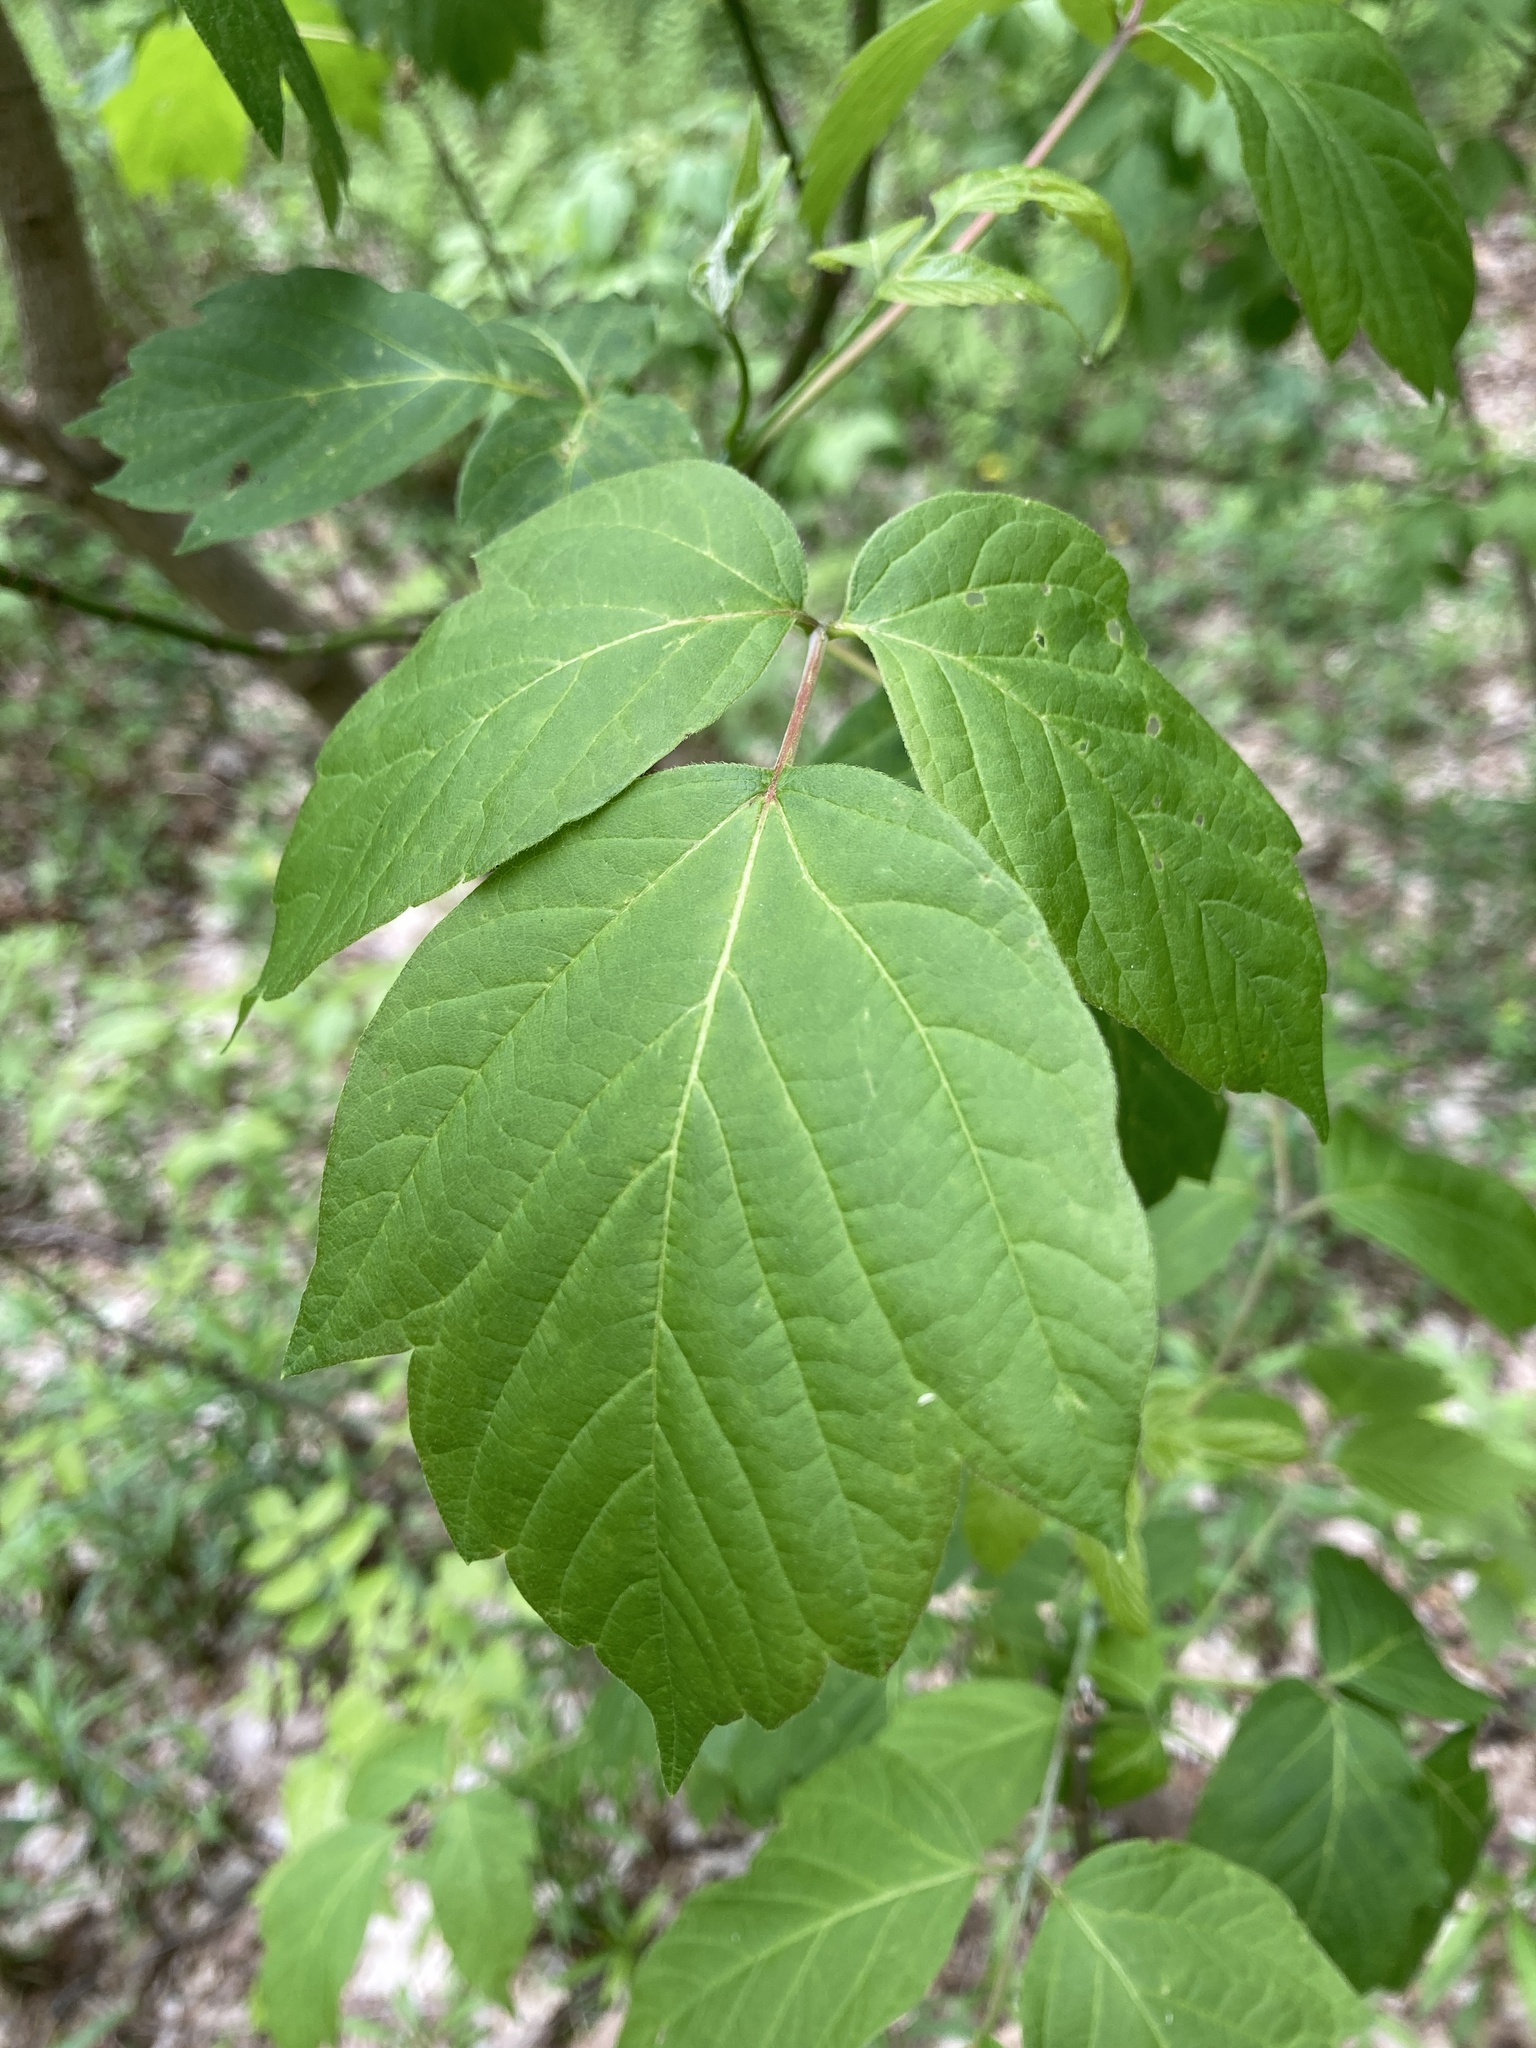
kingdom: Plantae
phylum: Tracheophyta
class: Magnoliopsida
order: Sapindales
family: Sapindaceae
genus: Acer
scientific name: Acer negundo
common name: Ashleaf maple
